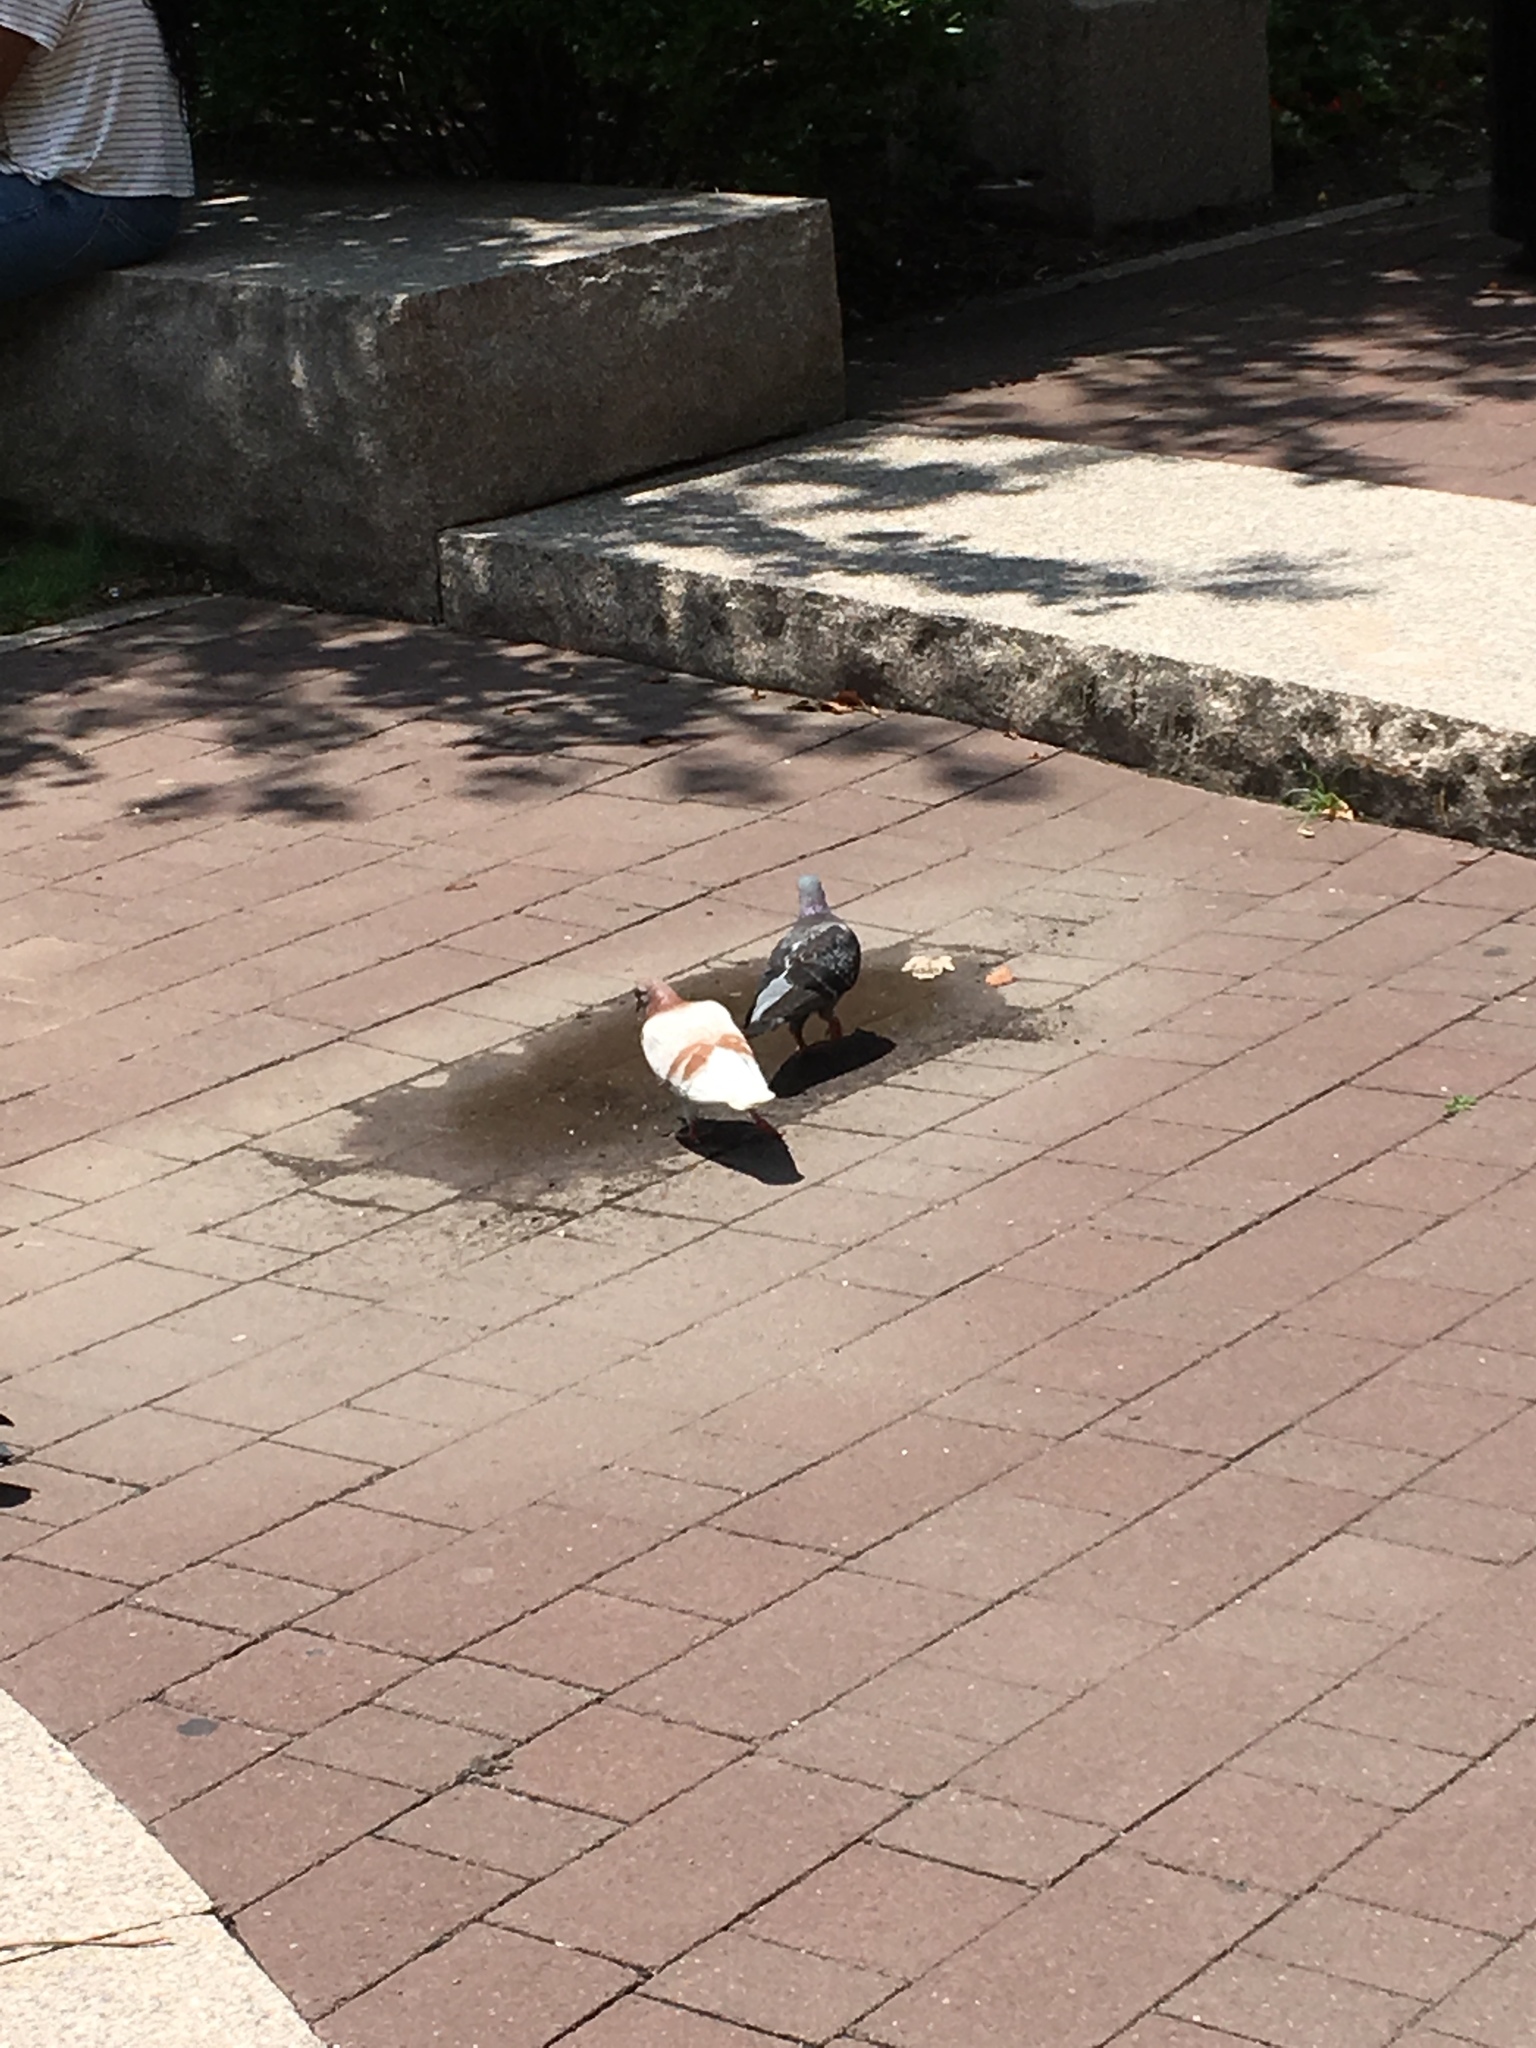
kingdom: Animalia
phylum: Chordata
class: Aves
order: Columbiformes
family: Columbidae
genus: Columba
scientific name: Columba livia
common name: Rock pigeon
